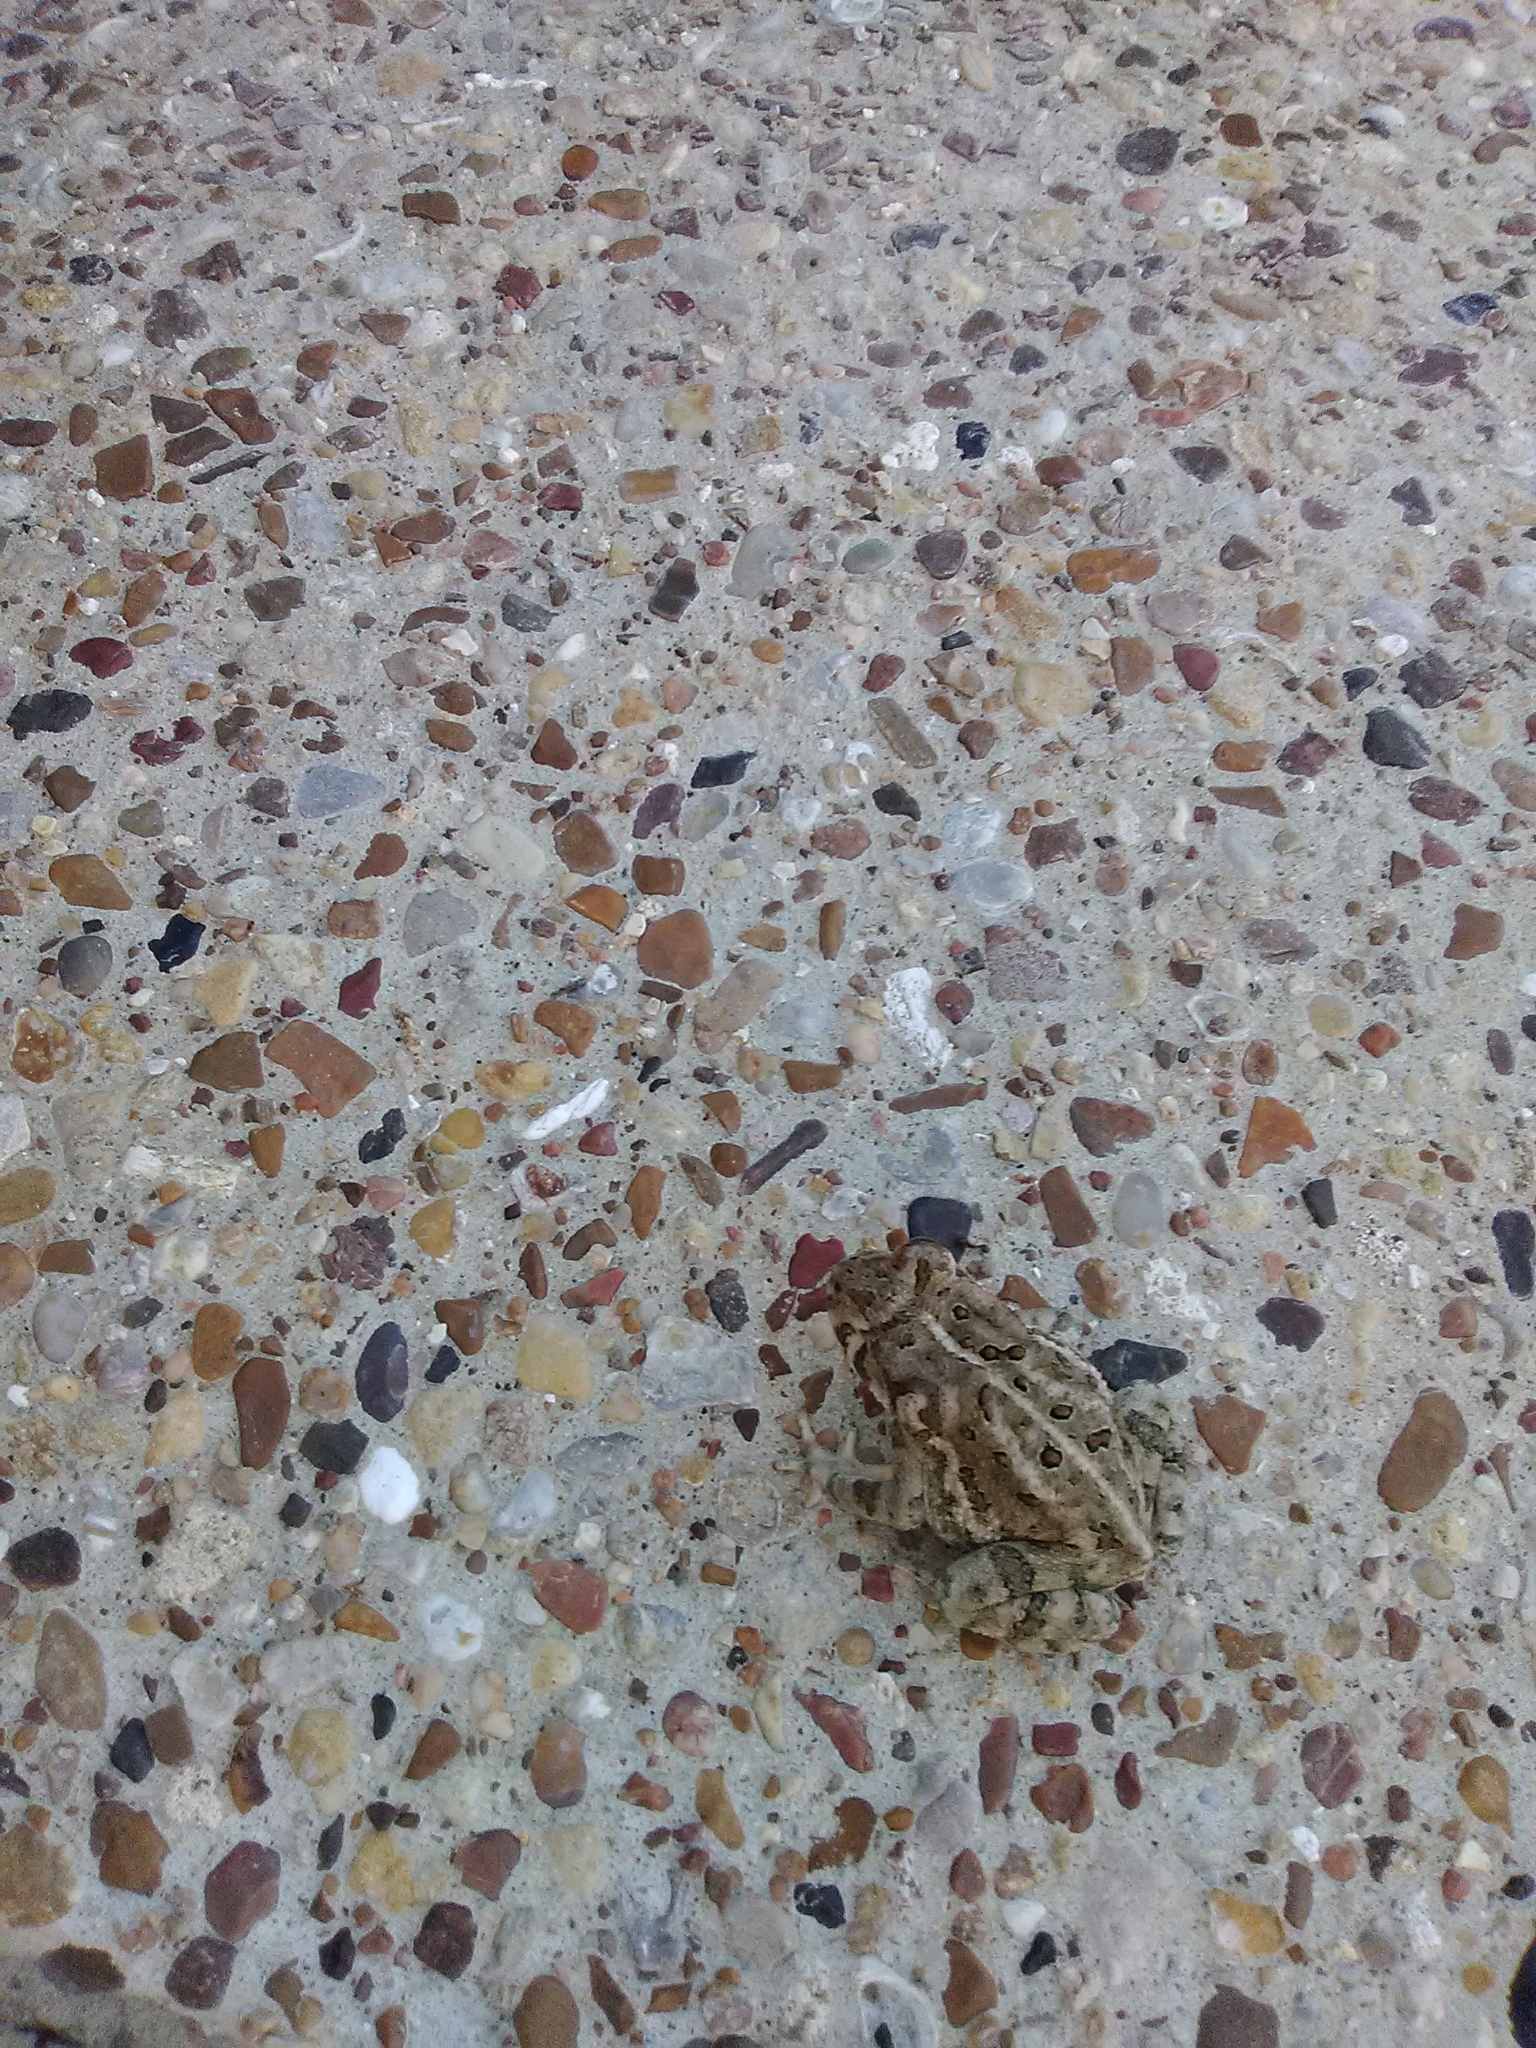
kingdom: Animalia
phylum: Chordata
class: Amphibia
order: Anura
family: Bufonidae
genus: Anaxyrus
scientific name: Anaxyrus woodhousii
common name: Woodhouse's toad
